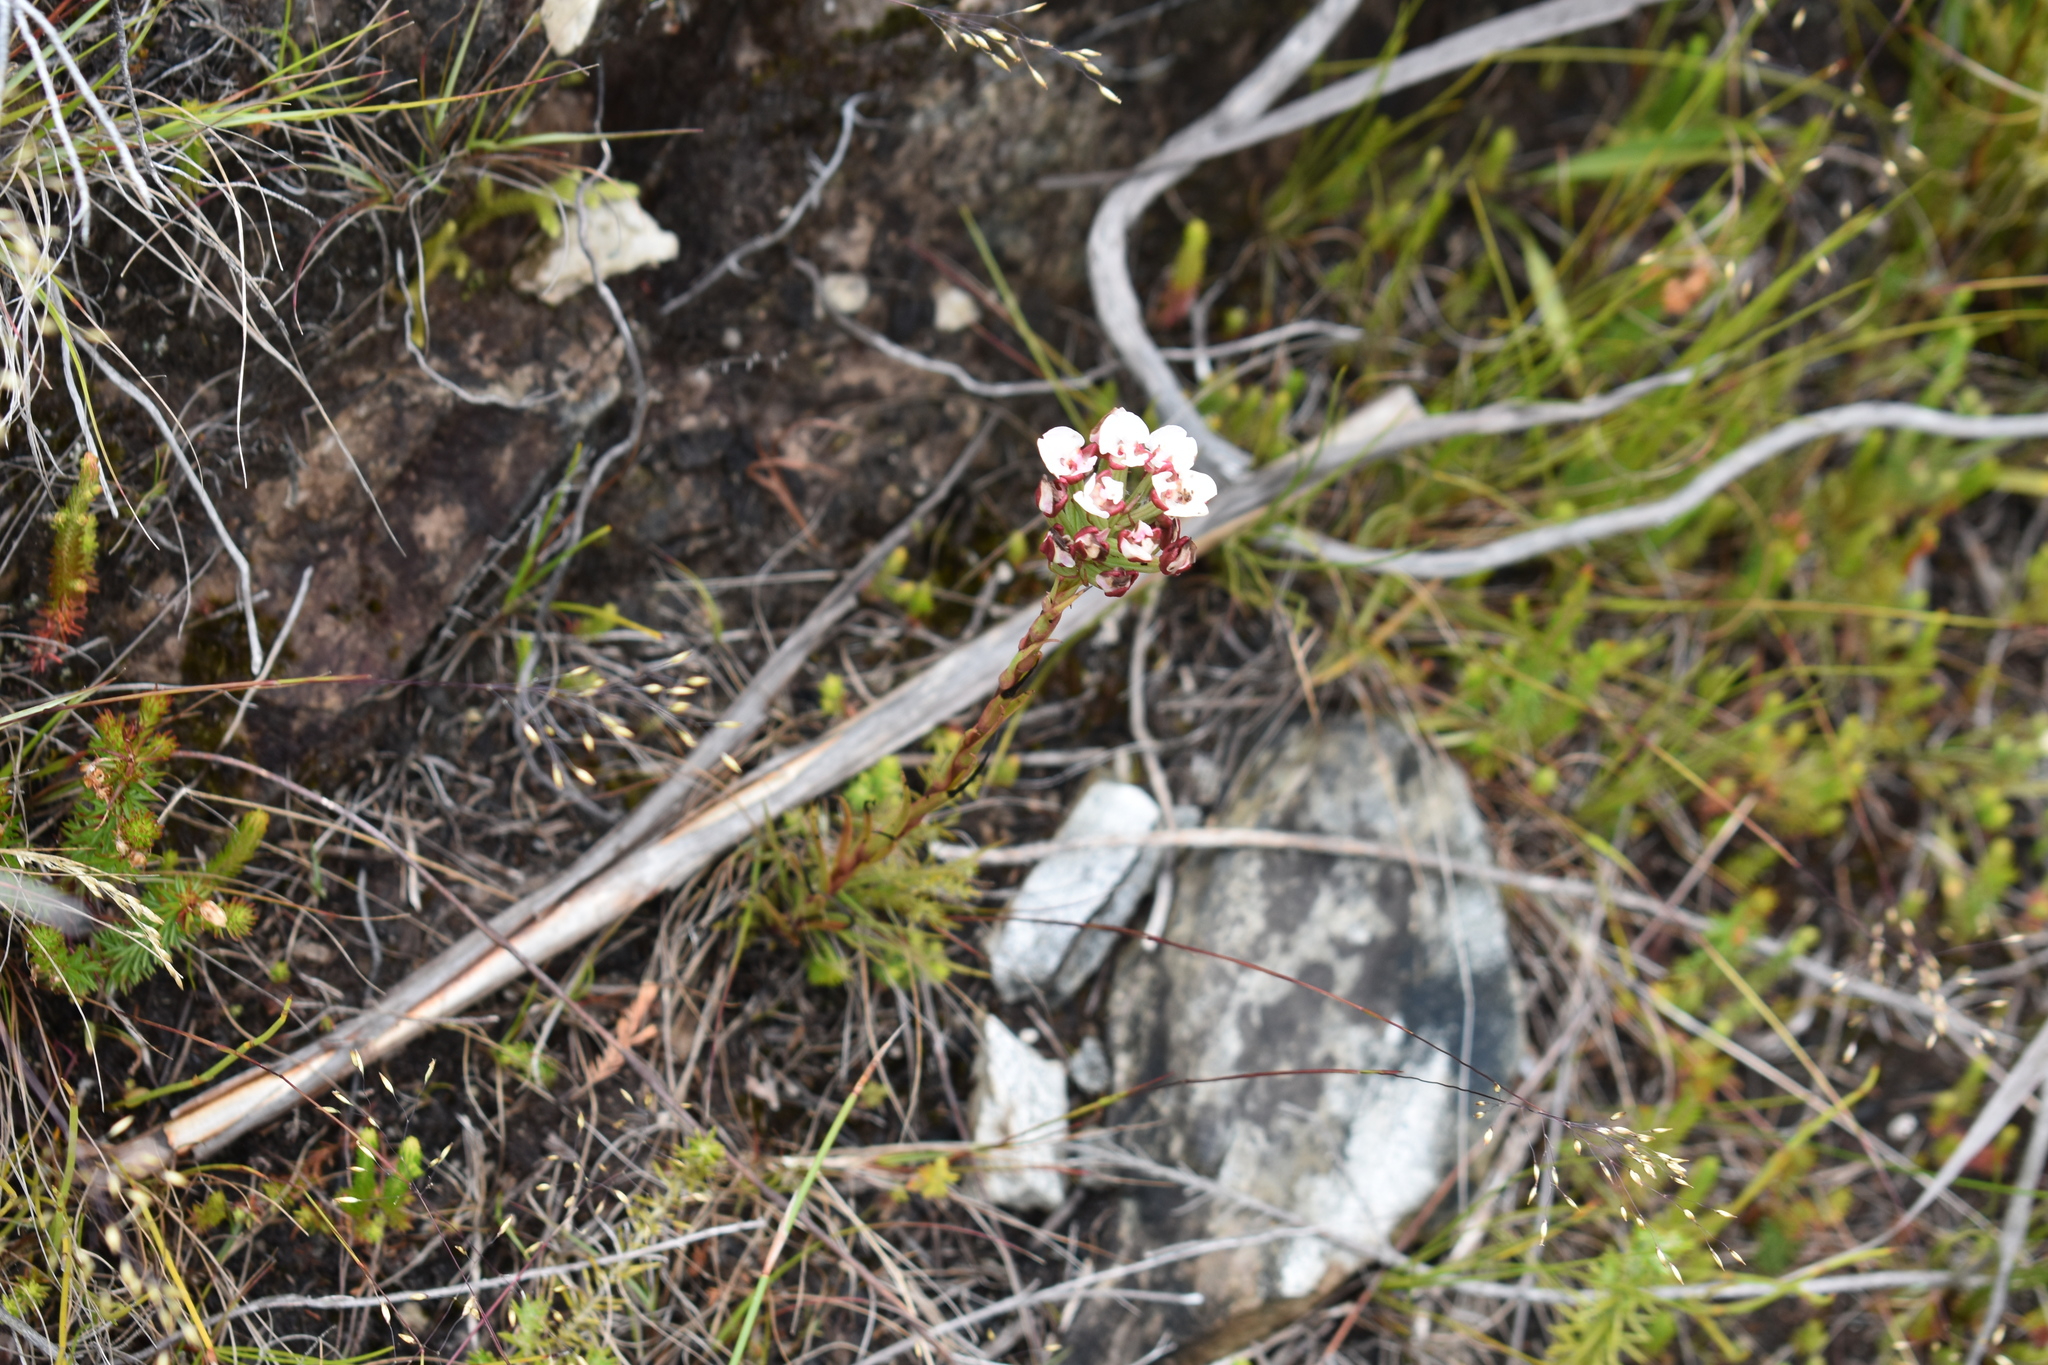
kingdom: Plantae
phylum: Tracheophyta
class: Liliopsida
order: Asparagales
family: Orchidaceae
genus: Ceratandra
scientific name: Ceratandra globosa
